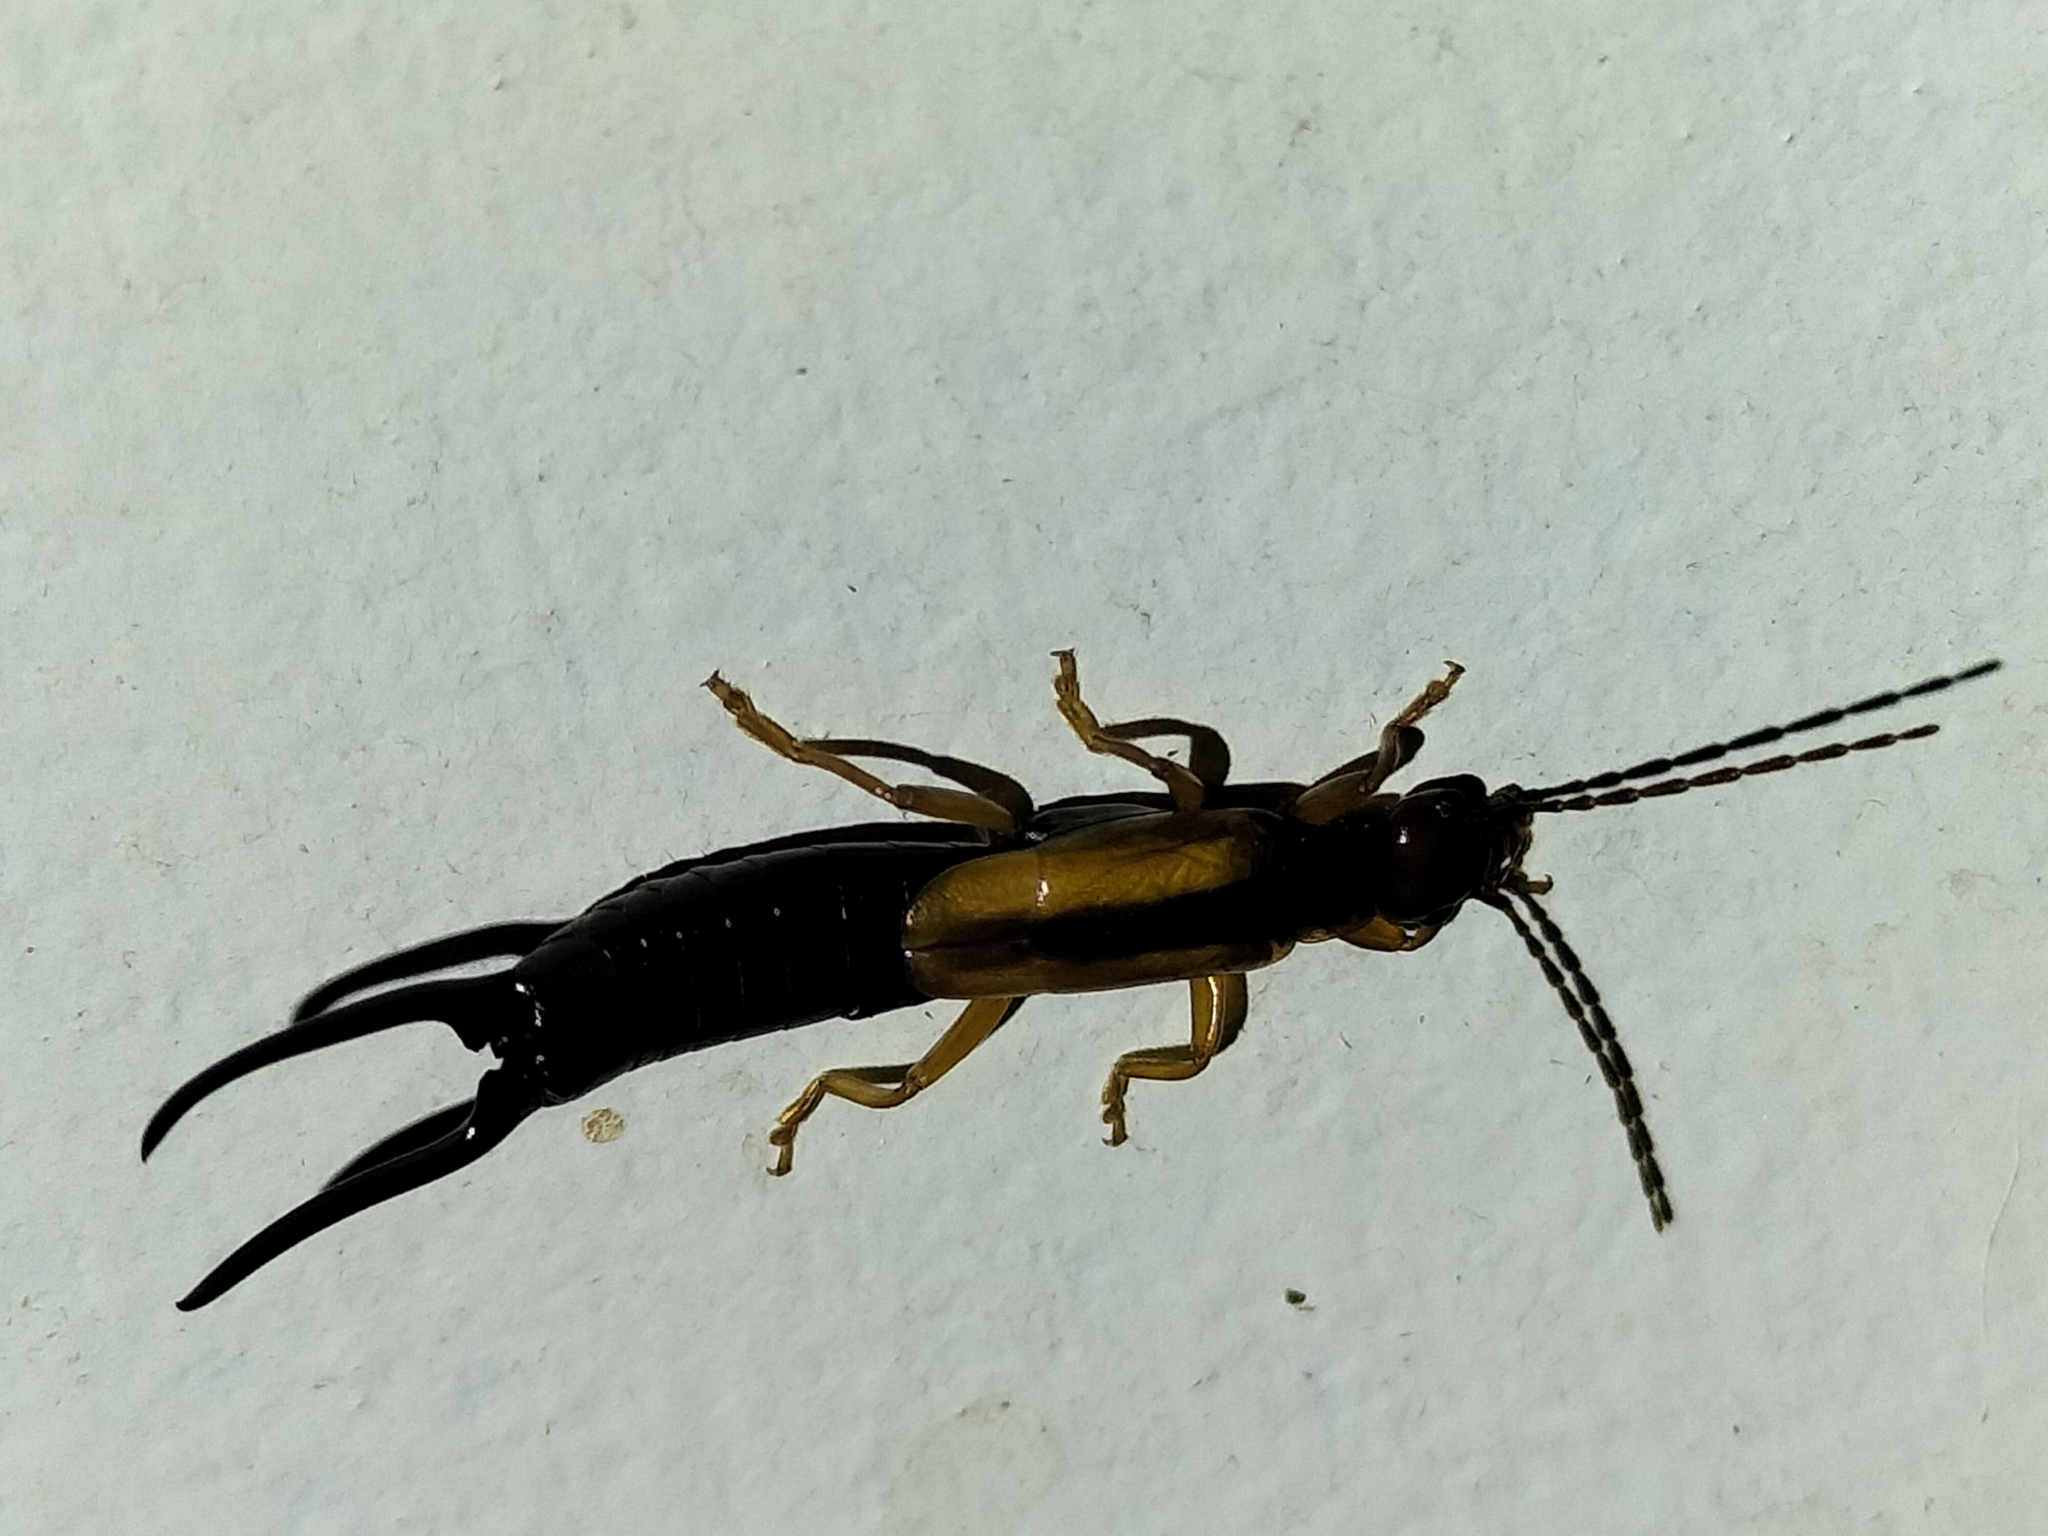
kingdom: Animalia
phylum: Arthropoda
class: Insecta
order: Dermaptera
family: Forficulidae
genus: Elaunon
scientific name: Elaunon bipartitus
